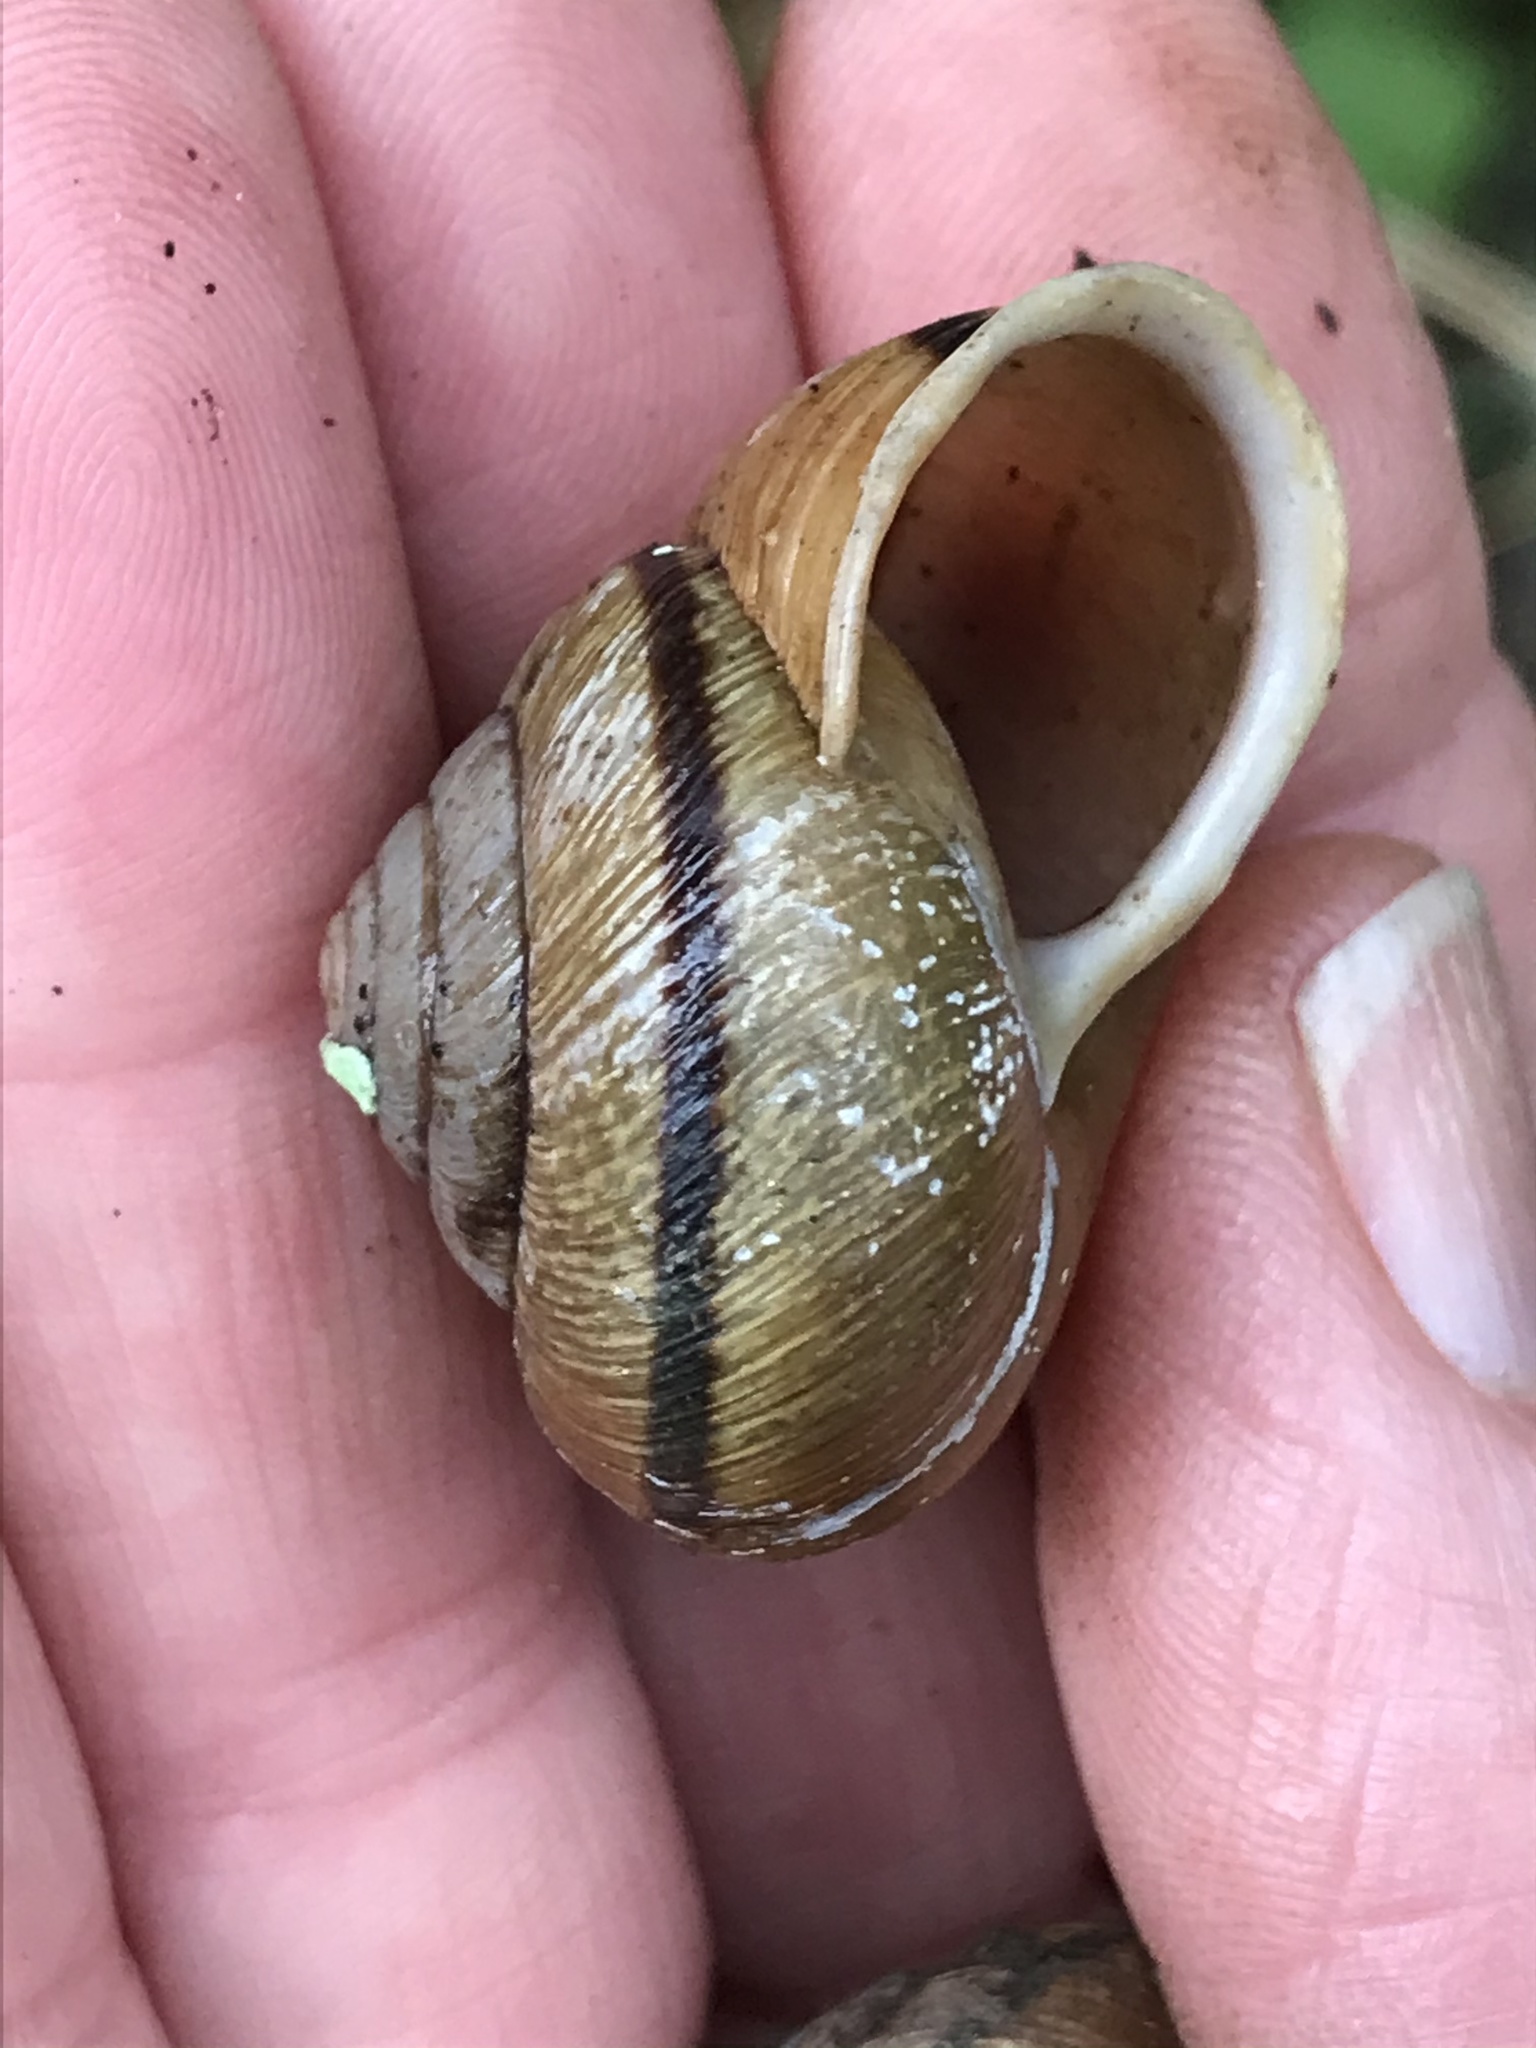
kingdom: Animalia
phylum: Mollusca
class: Gastropoda
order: Stylommatophora
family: Xanthonychidae
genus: Helminthoglypta
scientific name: Helminthoglypta arrosa
